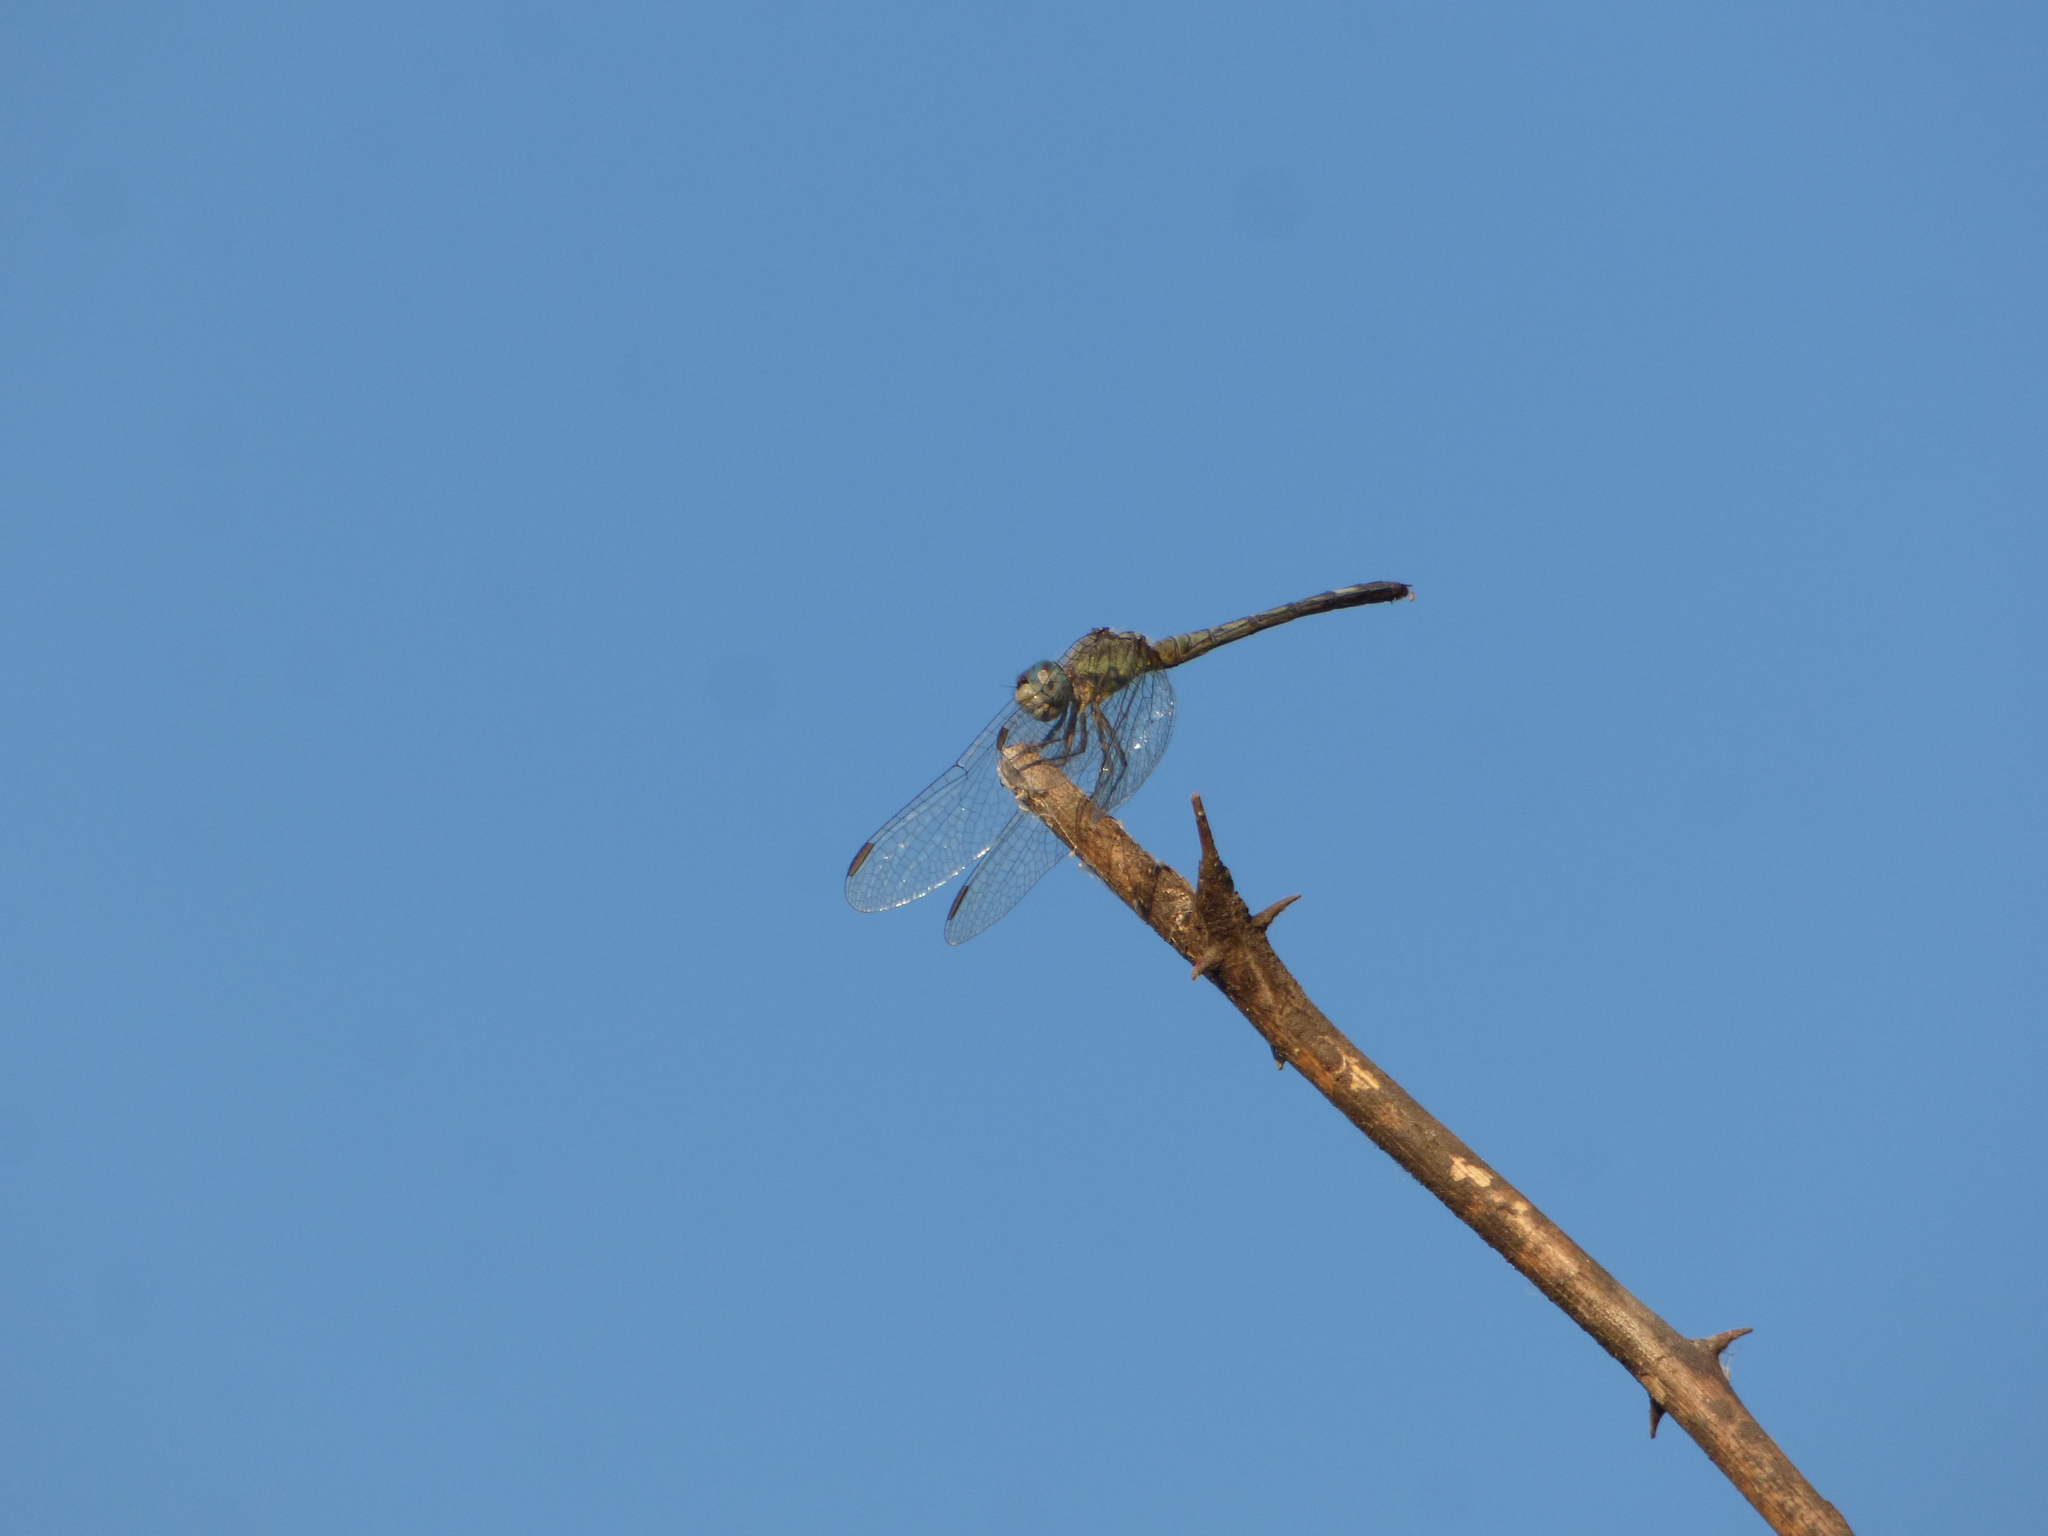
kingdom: Animalia
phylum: Arthropoda
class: Insecta
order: Odonata
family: Libellulidae
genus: Micrathyria
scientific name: Micrathyria longifasciata
